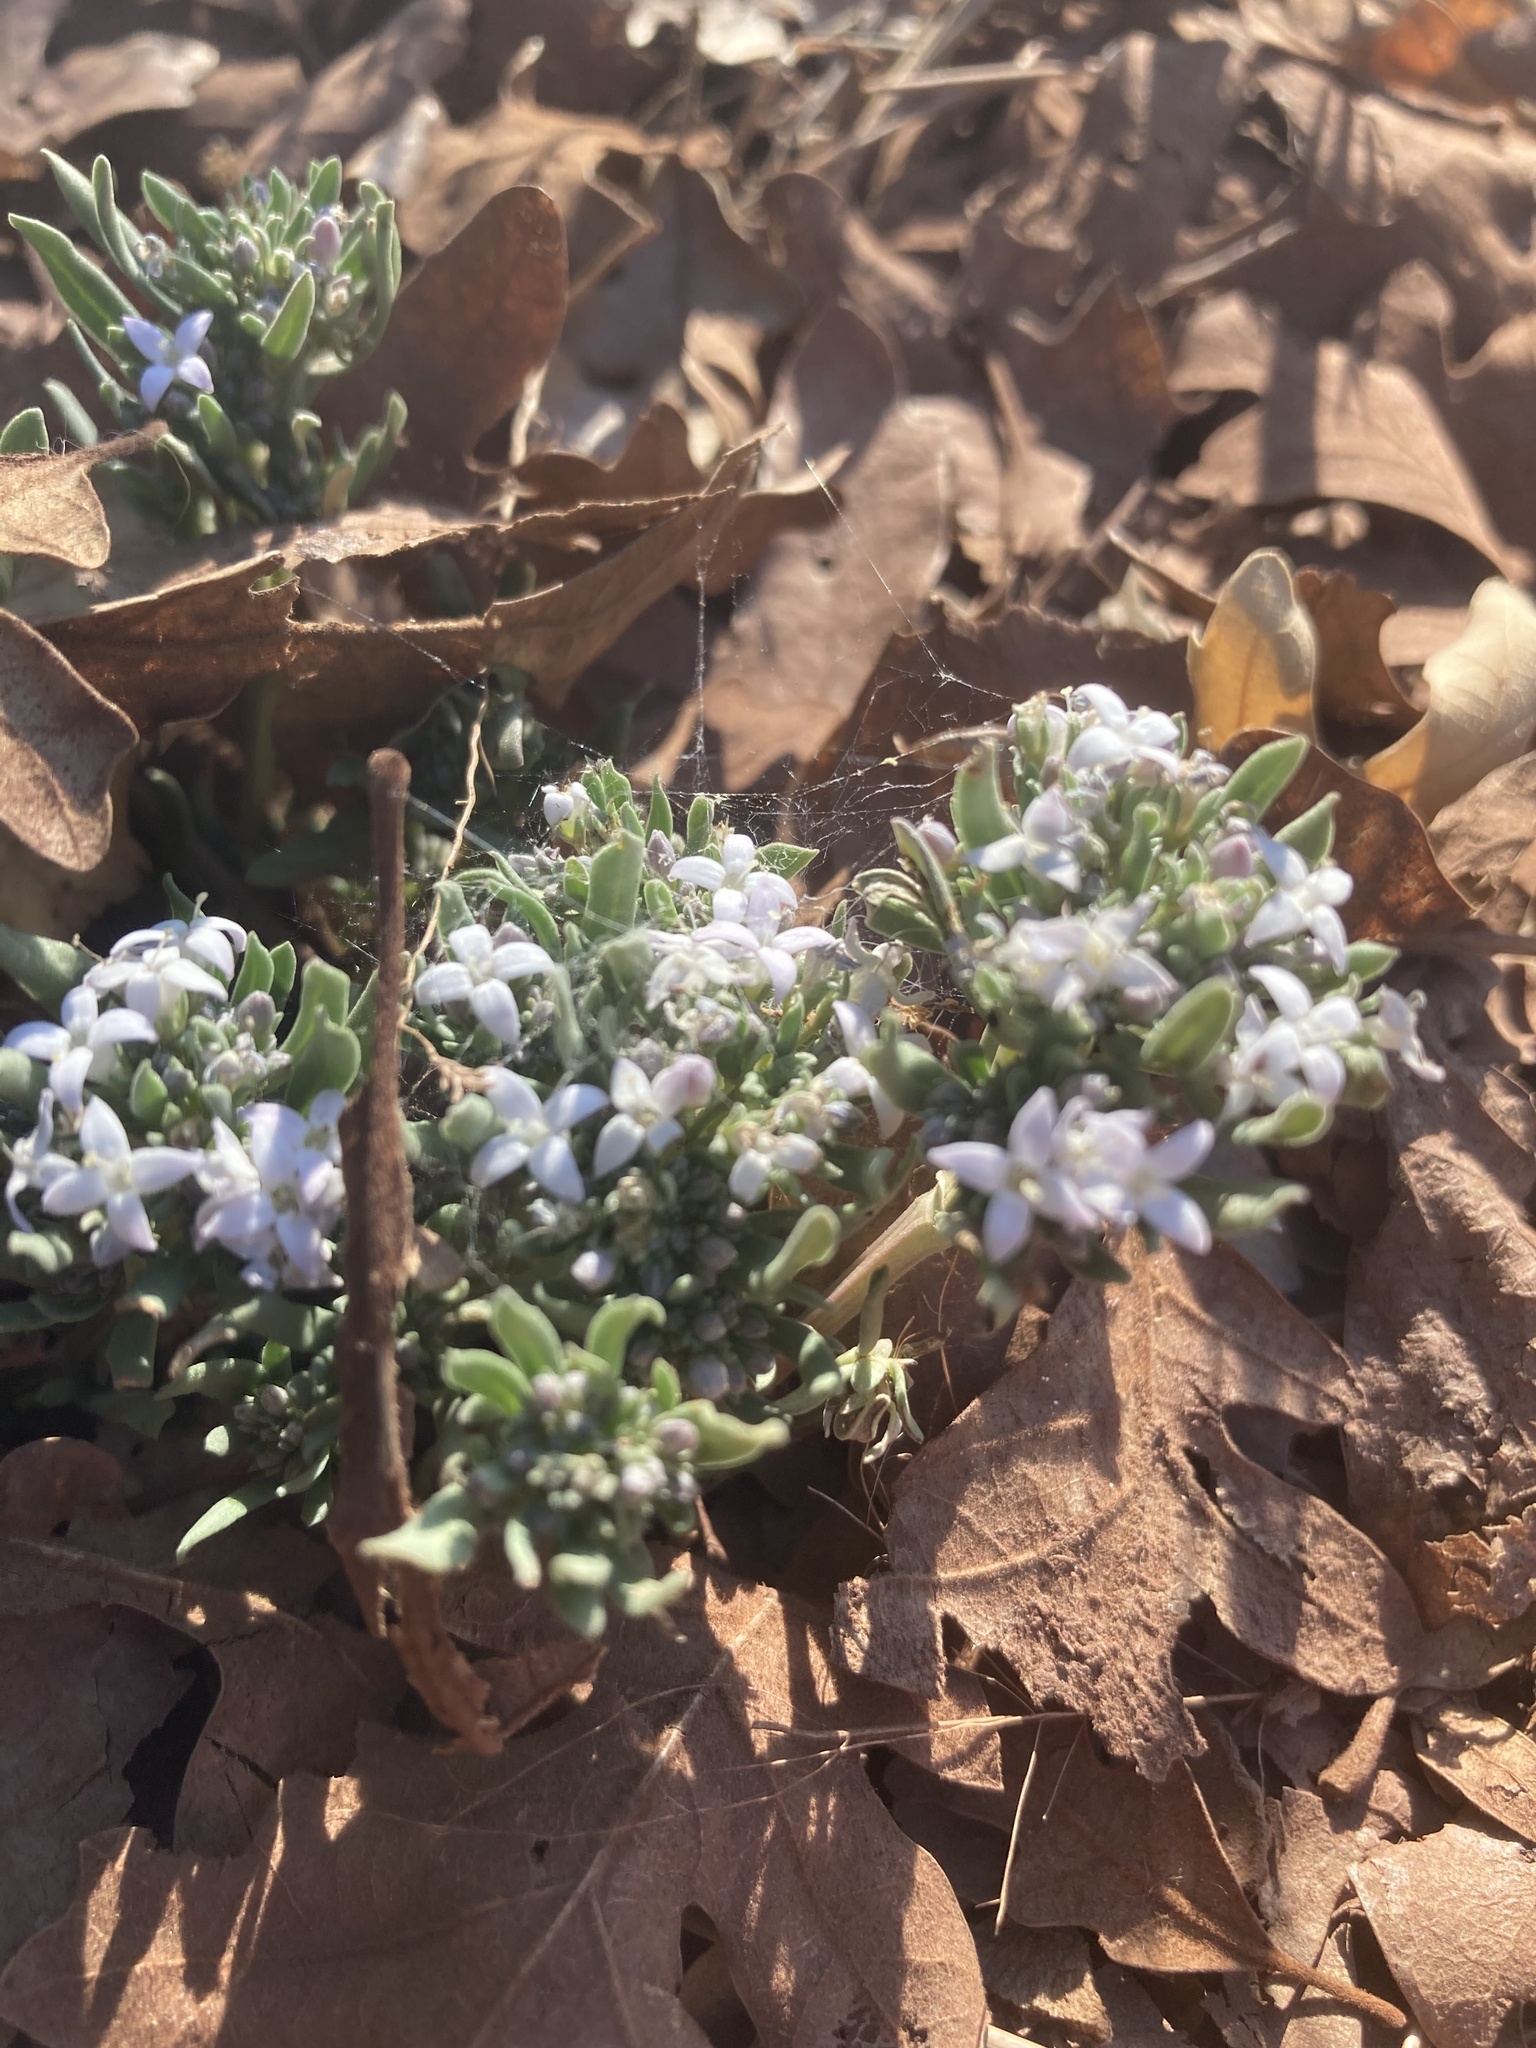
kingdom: Plantae
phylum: Tracheophyta
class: Magnoliopsida
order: Gentianales
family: Rubiaceae
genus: Houstonia
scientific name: Houstonia wrightii
